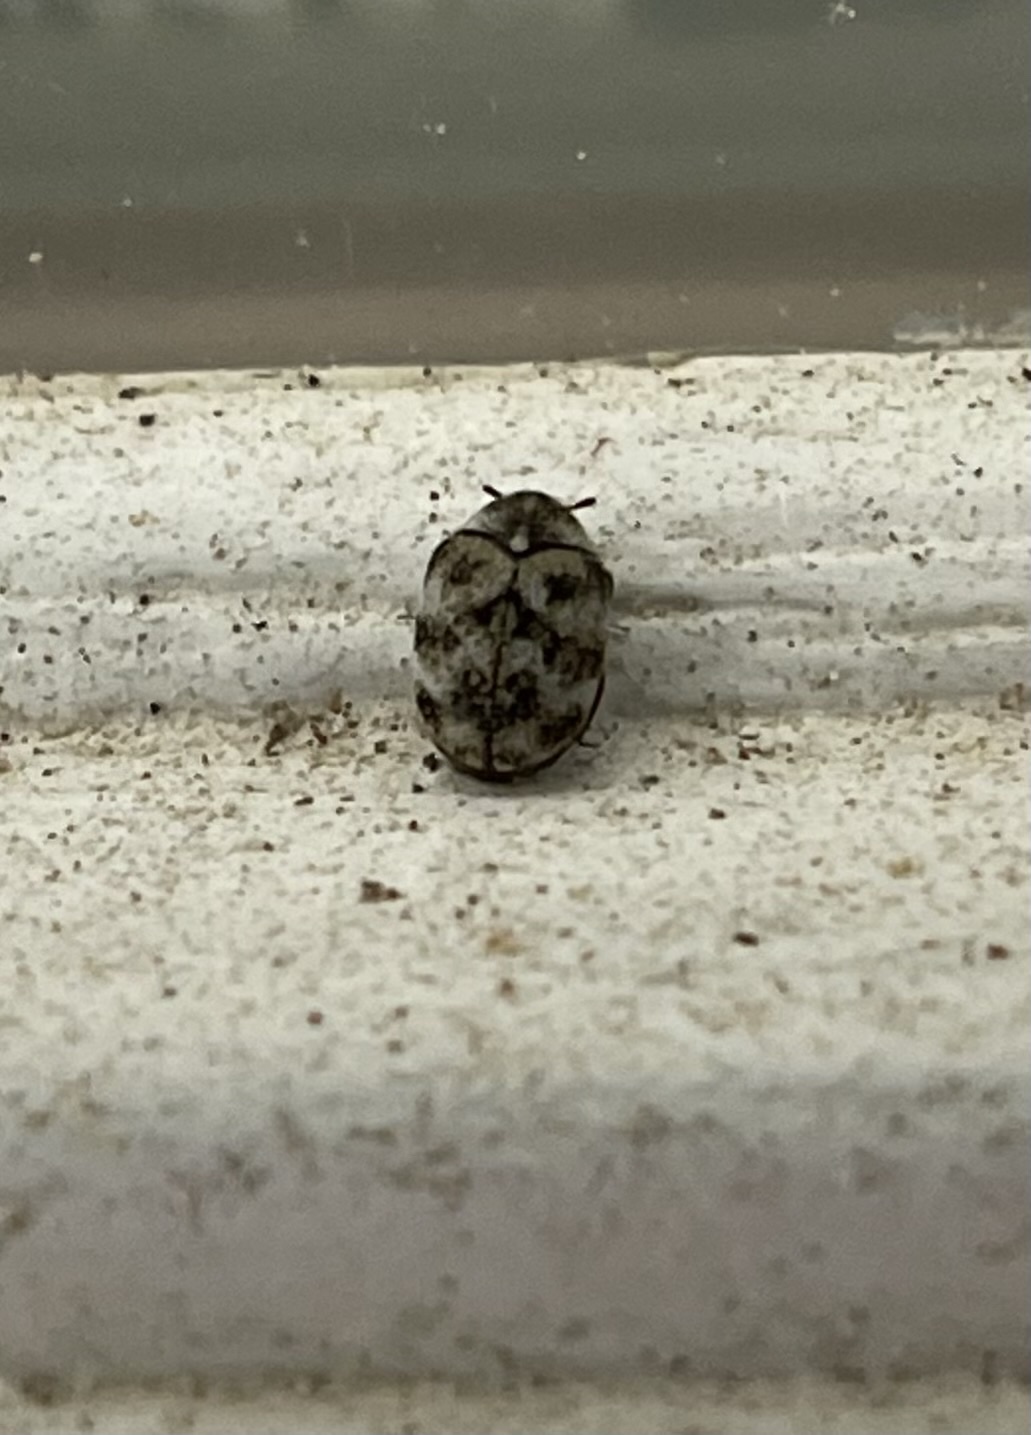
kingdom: Animalia
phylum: Arthropoda
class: Insecta
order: Coleoptera
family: Dermestidae
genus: Anthrenus
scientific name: Anthrenus verbasci
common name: Varied carpet beetle
